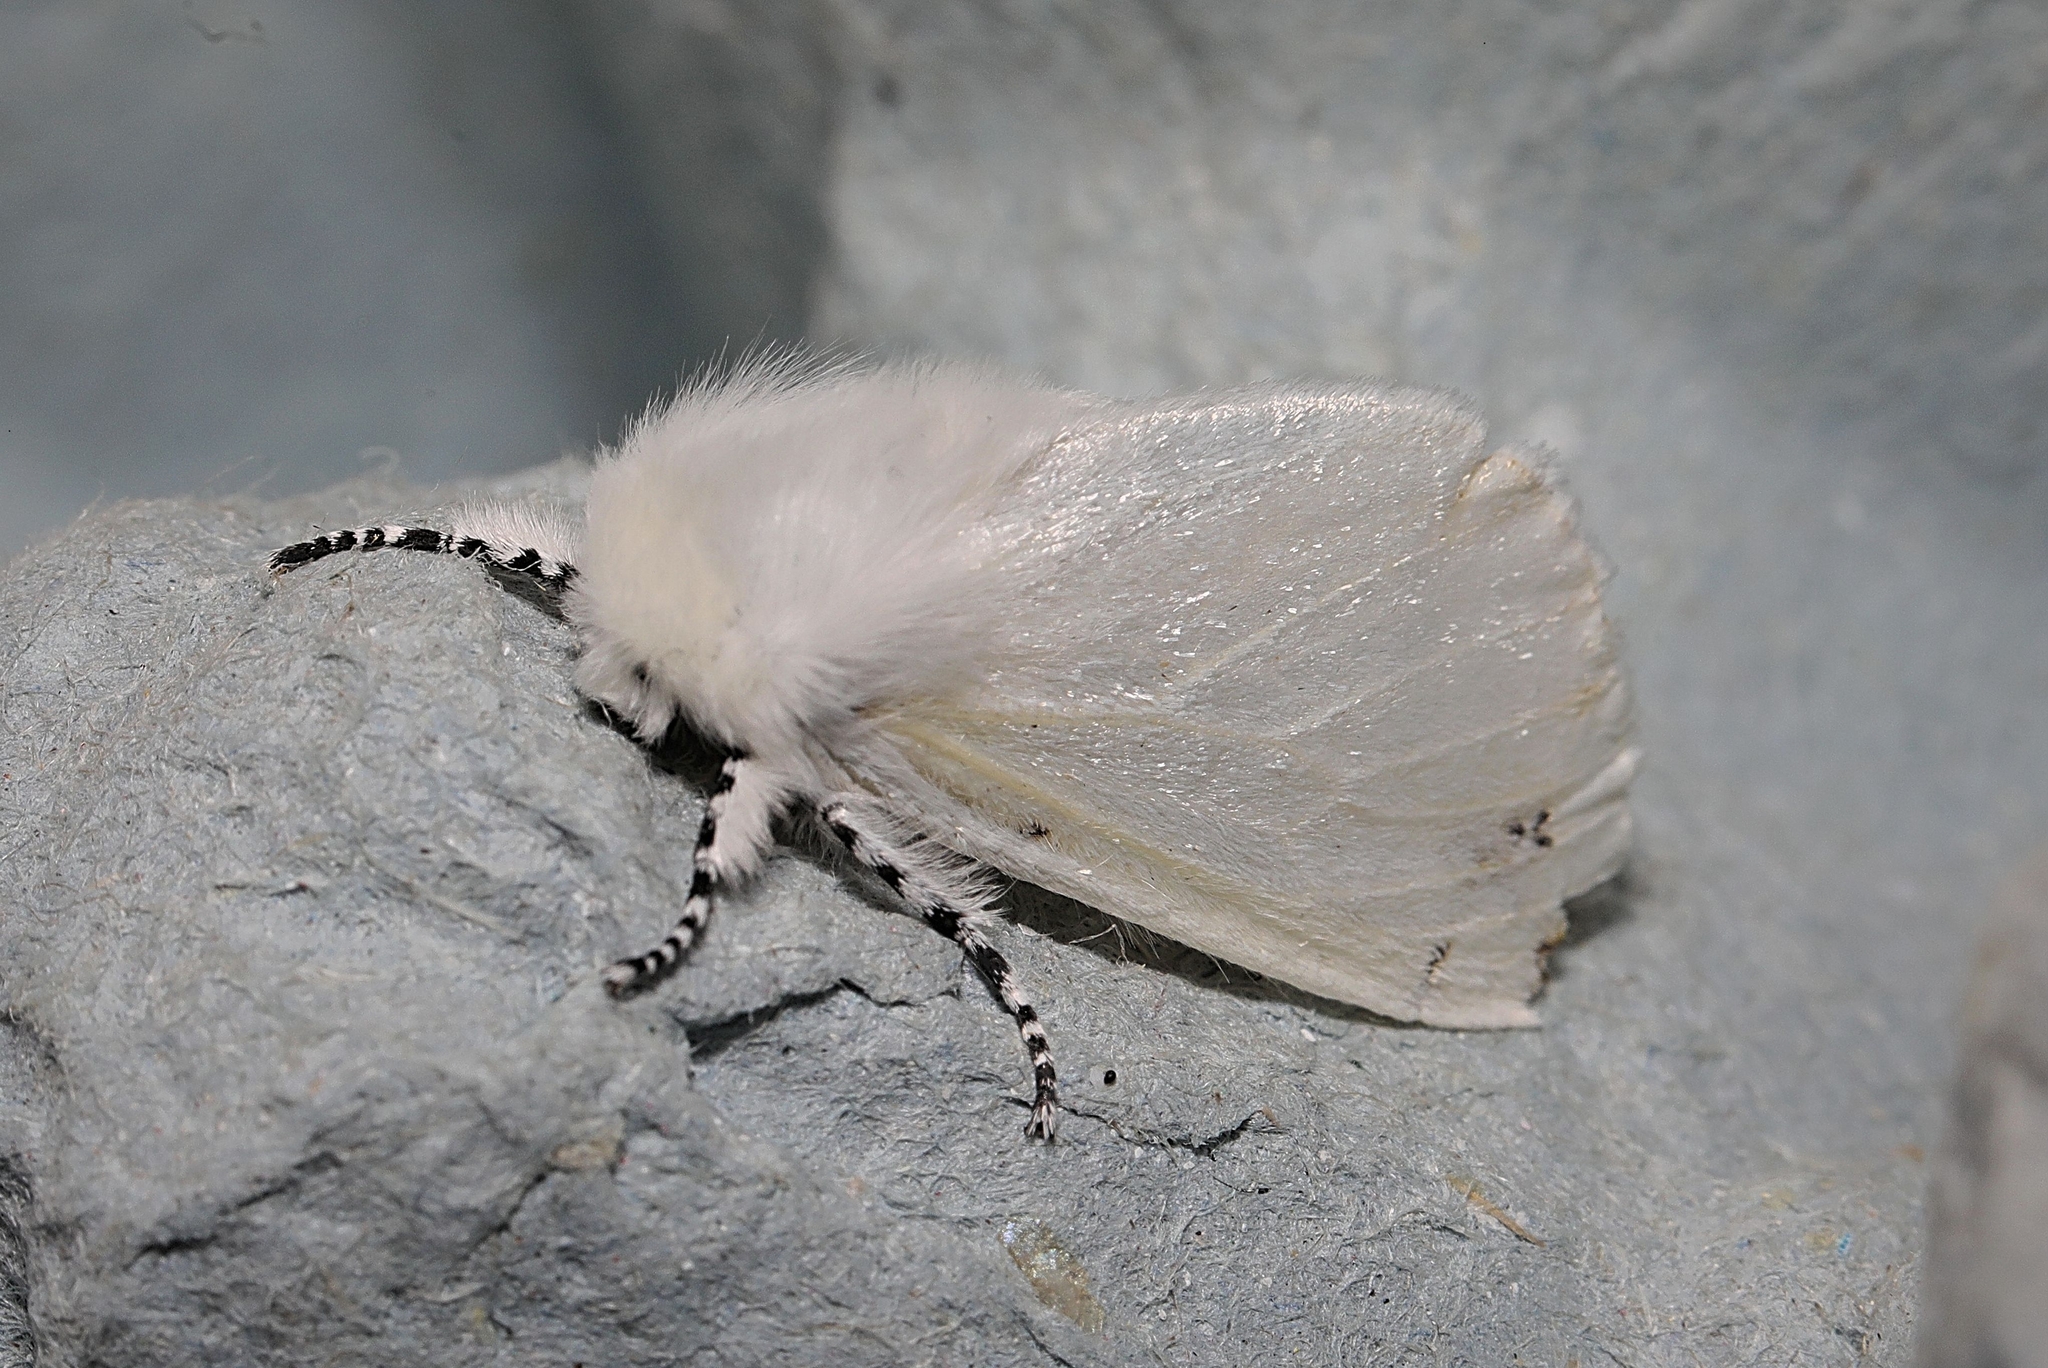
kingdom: Animalia
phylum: Arthropoda
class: Insecta
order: Lepidoptera
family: Erebidae
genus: Leucoma
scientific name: Leucoma salicis
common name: White satin moth
